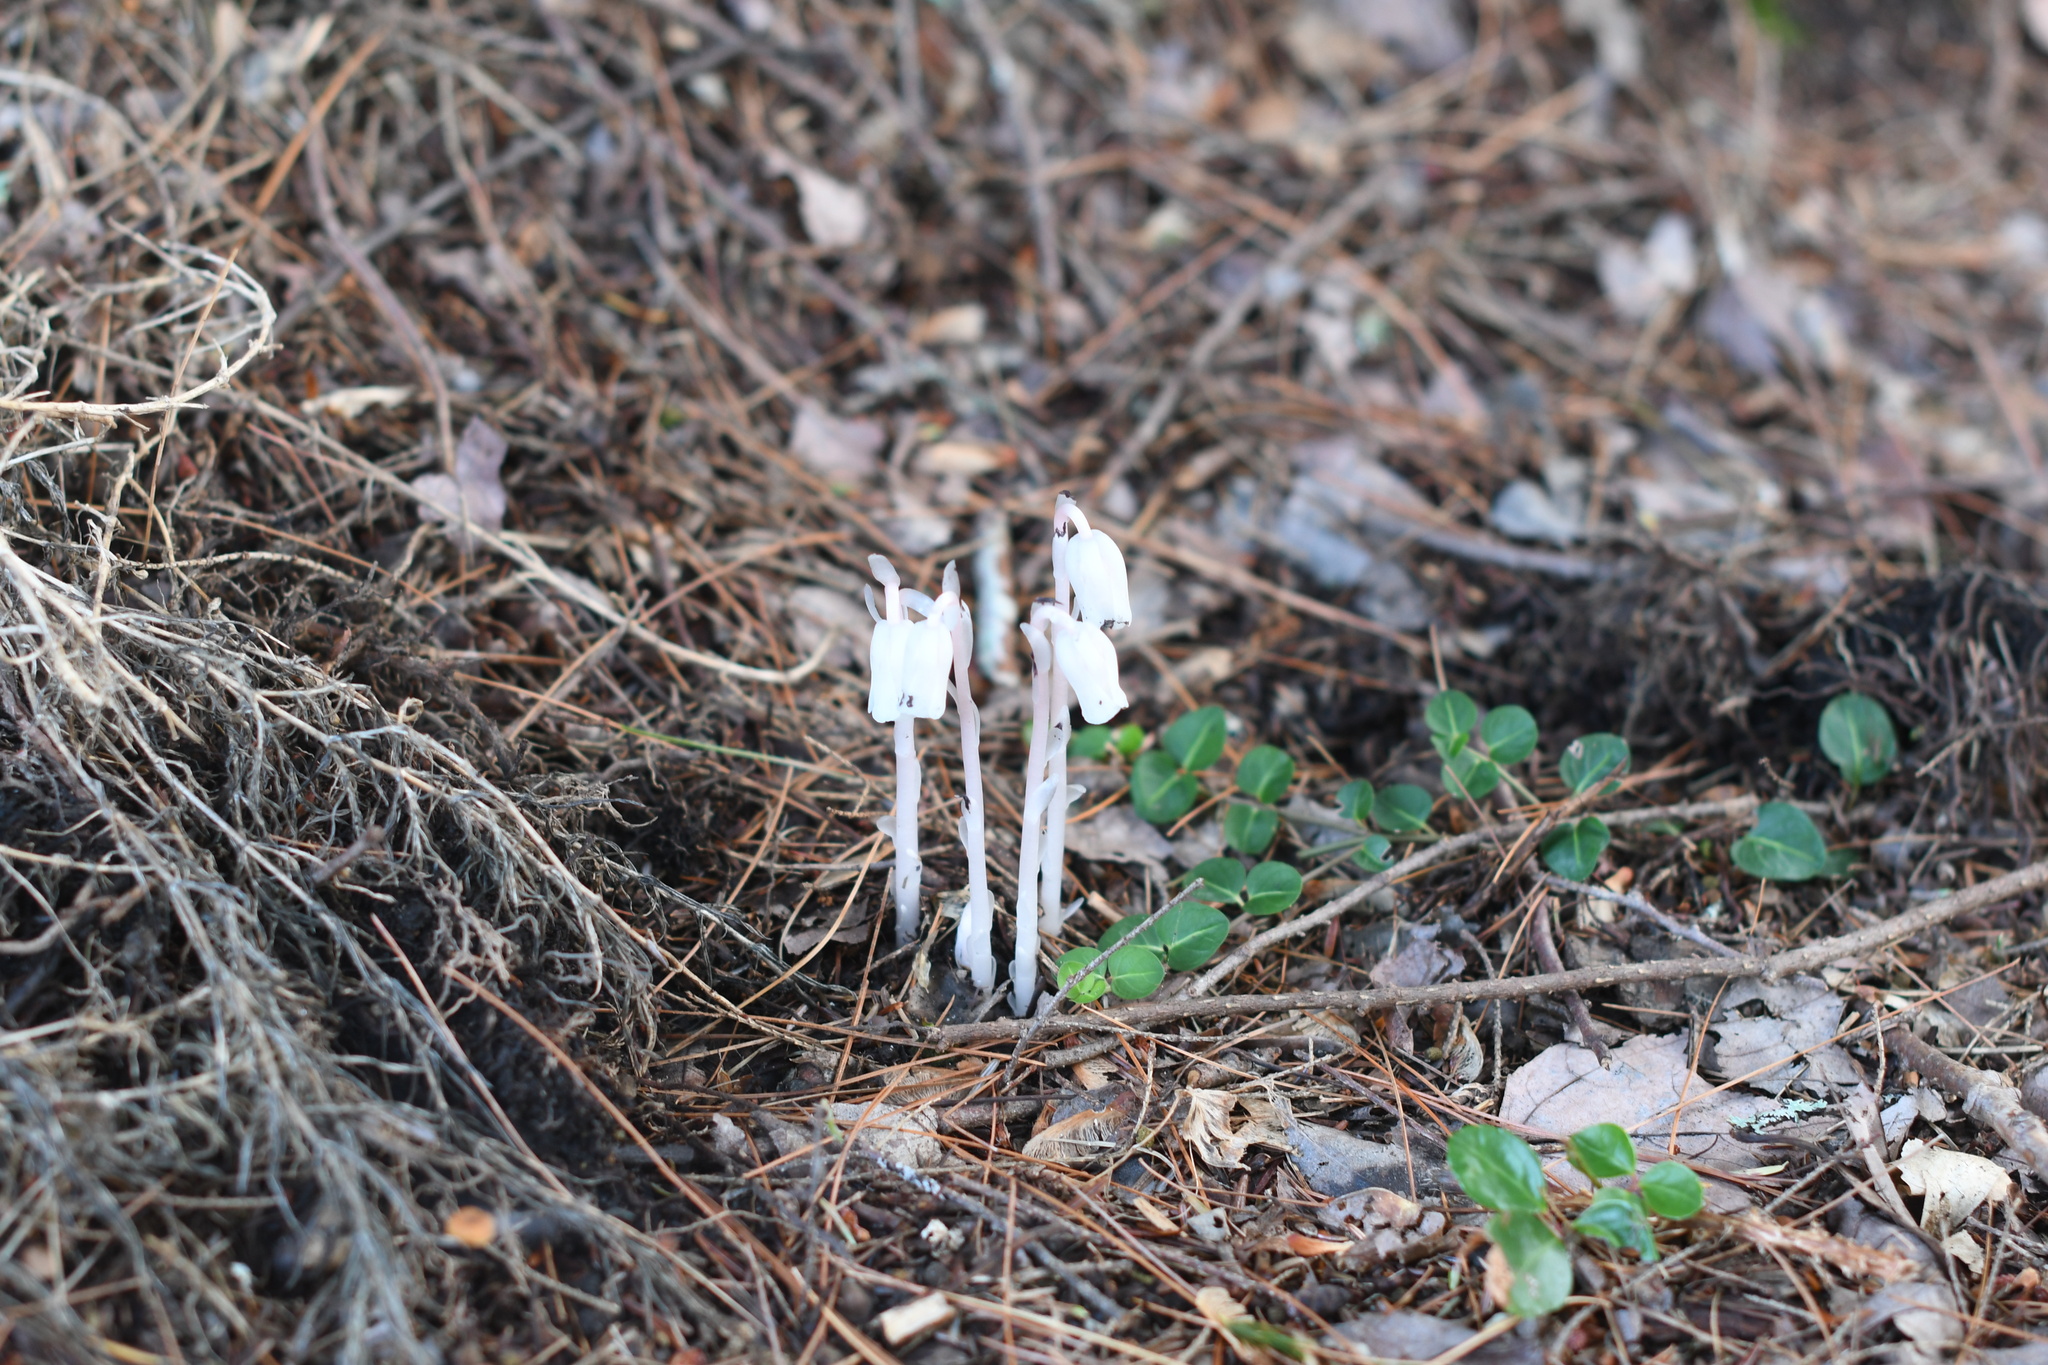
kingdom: Plantae
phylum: Tracheophyta
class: Magnoliopsida
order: Ericales
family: Ericaceae
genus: Monotropa
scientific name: Monotropa uniflora
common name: Convulsion root
